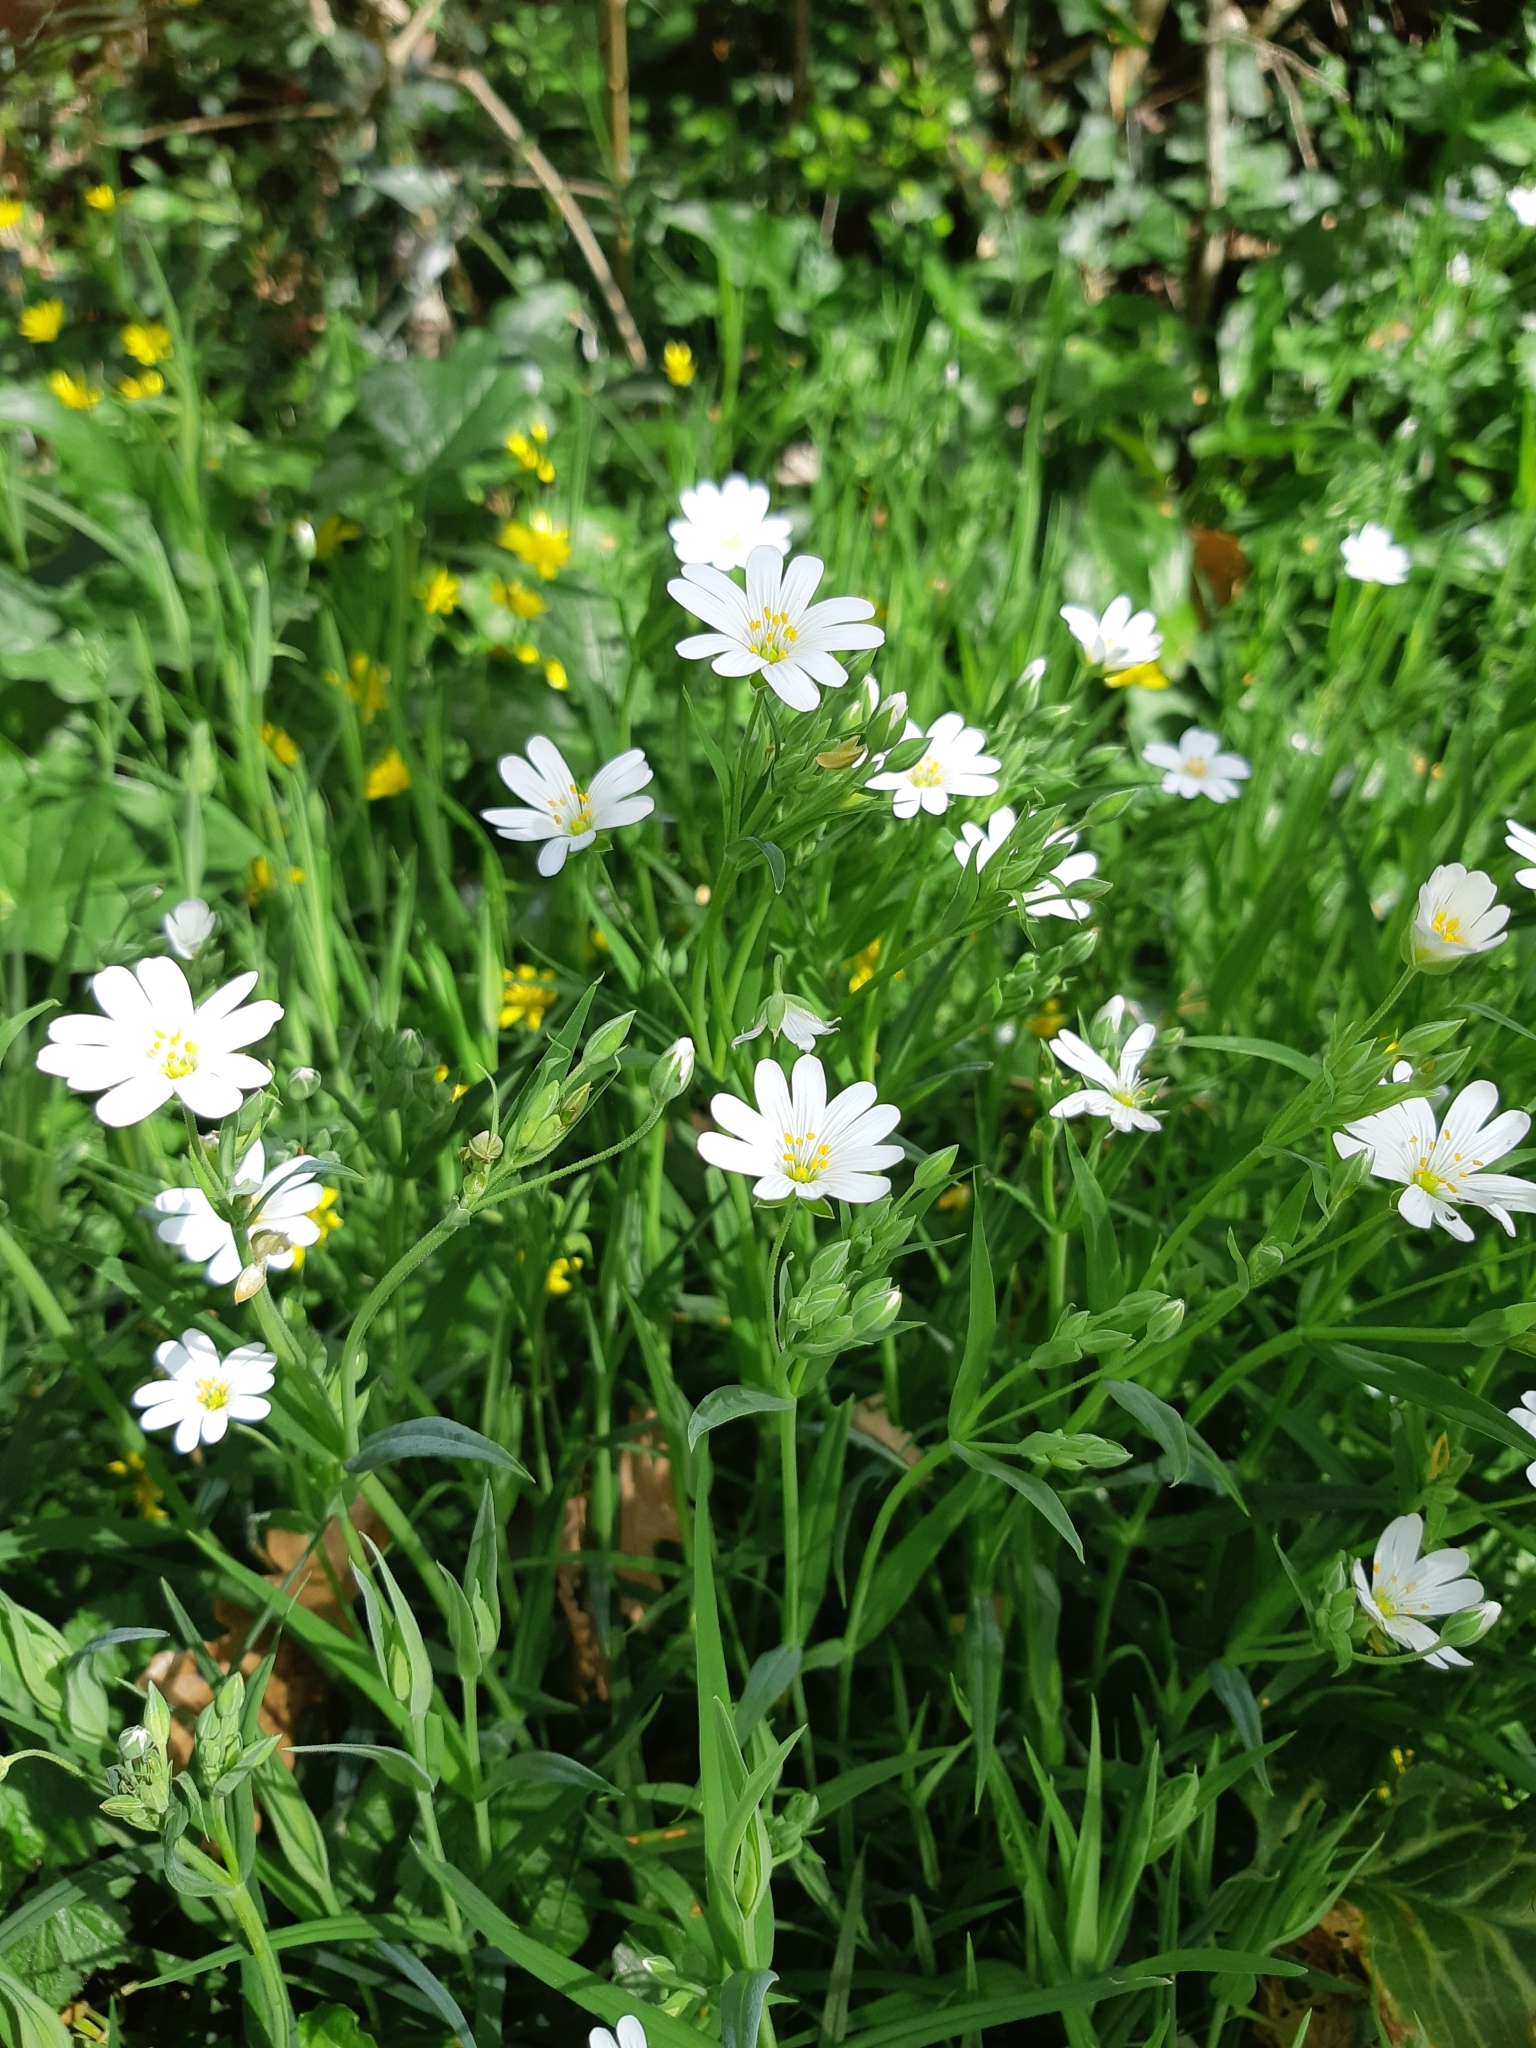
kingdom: Plantae
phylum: Tracheophyta
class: Magnoliopsida
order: Caryophyllales
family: Caryophyllaceae
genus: Rabelera
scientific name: Rabelera holostea
